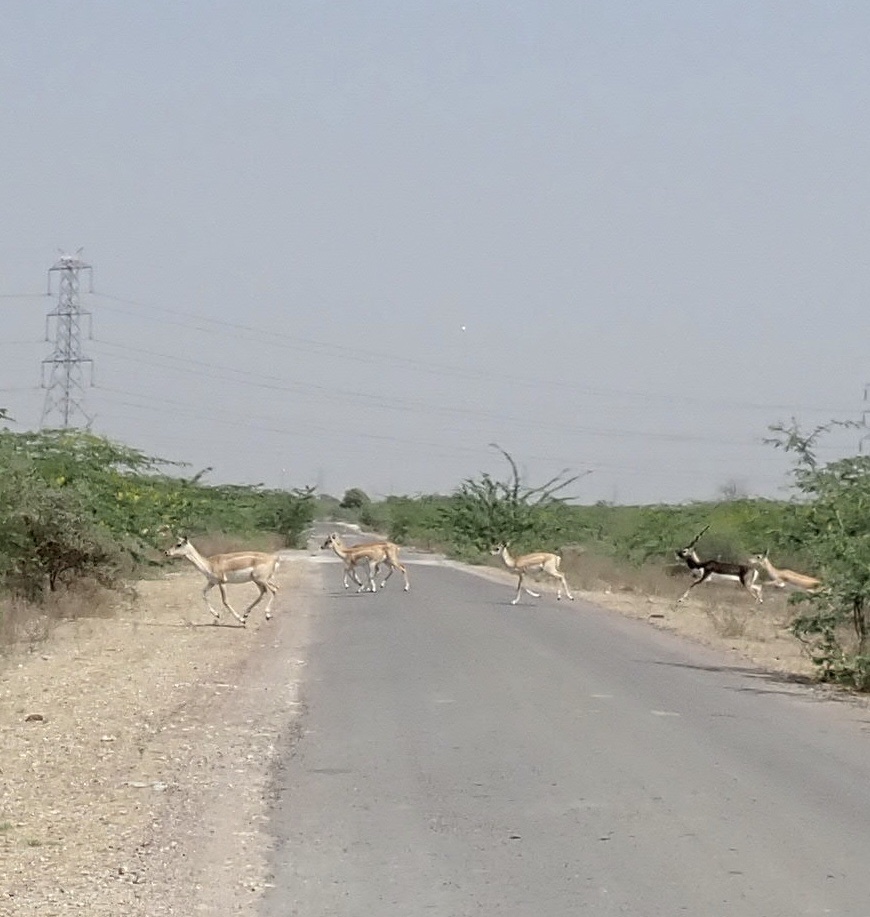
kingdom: Animalia
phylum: Chordata
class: Mammalia
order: Artiodactyla
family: Bovidae
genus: Antilope
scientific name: Antilope cervicapra
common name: Blackbuck
